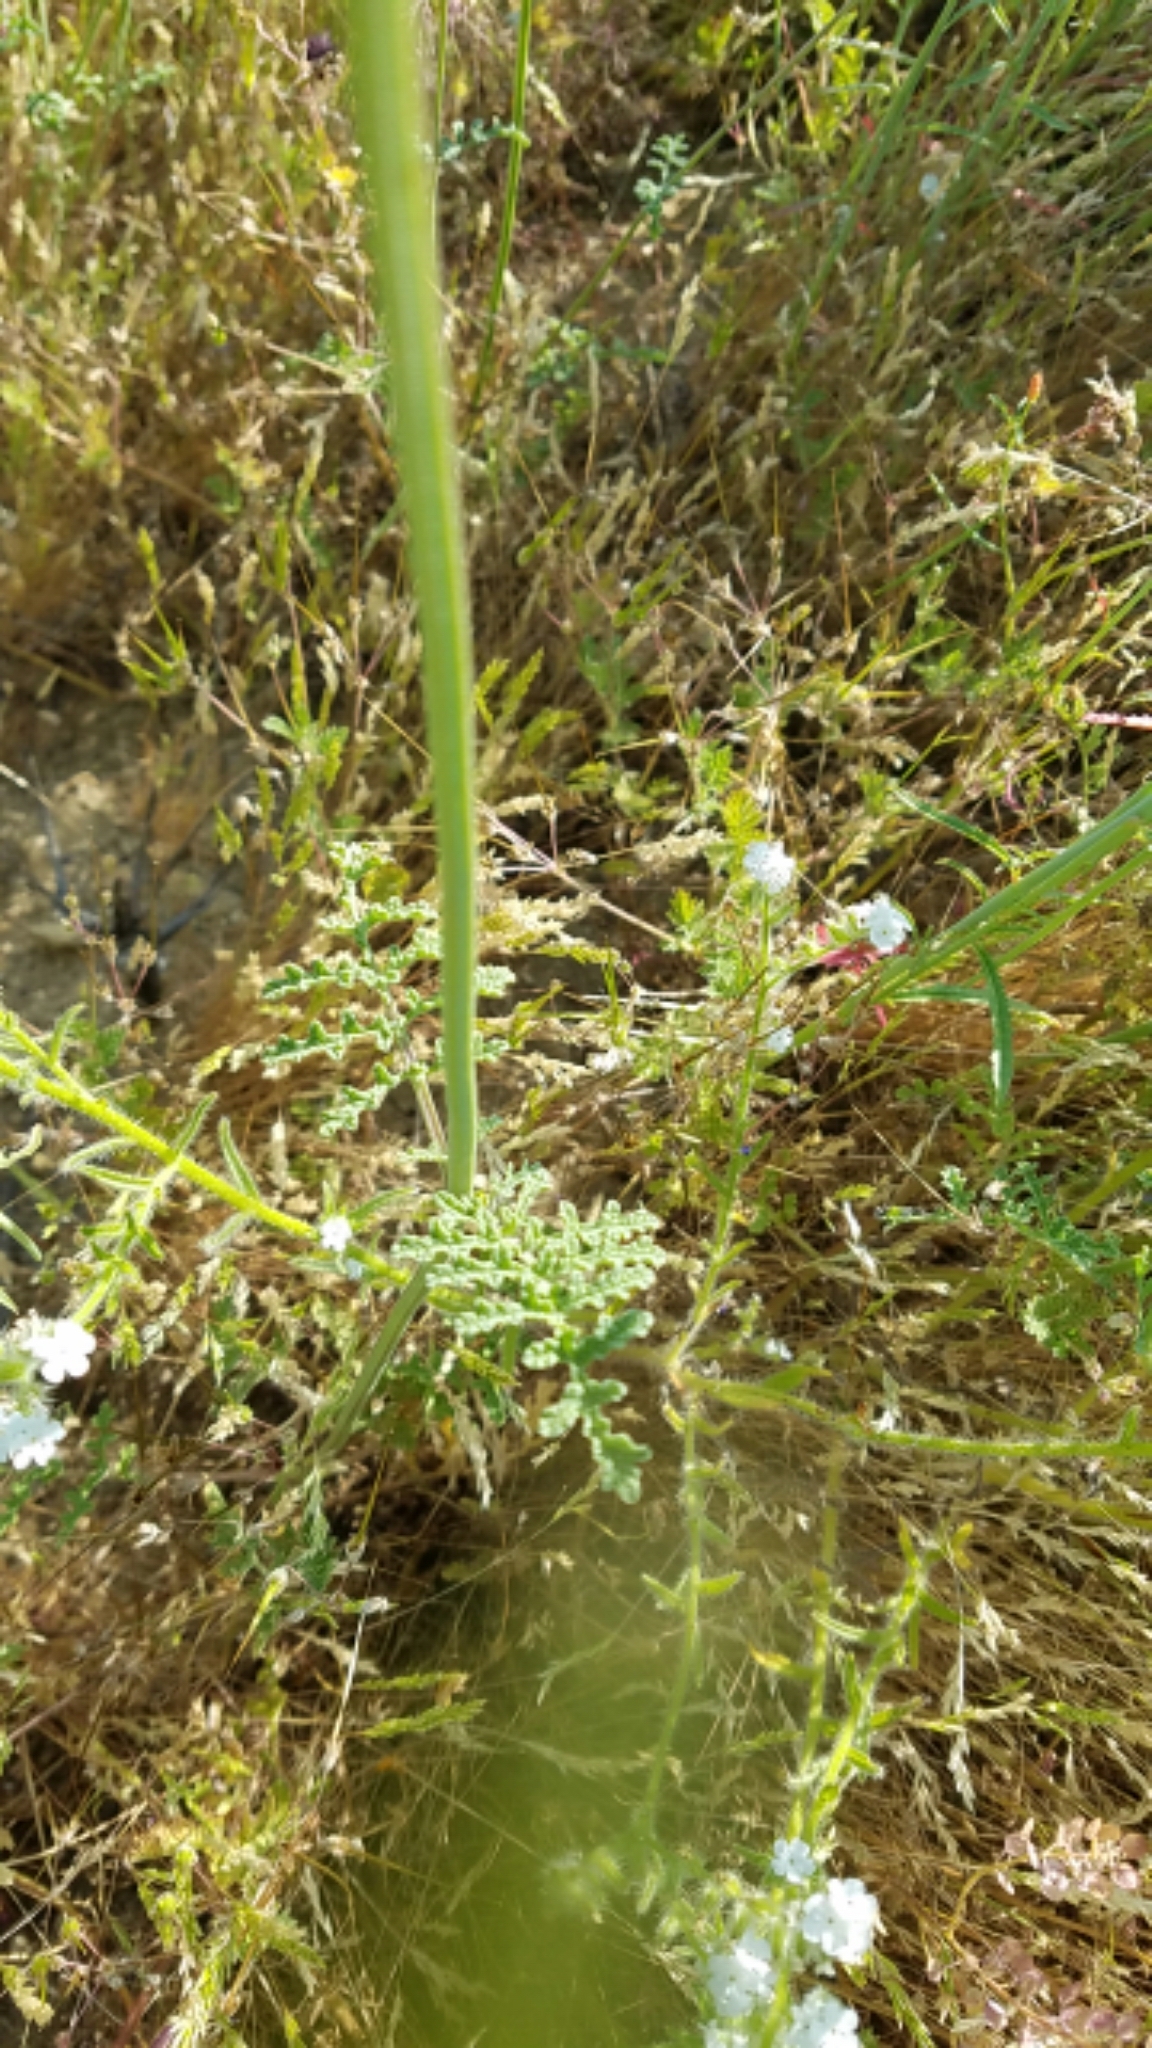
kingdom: Plantae
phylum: Tracheophyta
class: Magnoliopsida
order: Lamiales
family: Lamiaceae
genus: Salvia
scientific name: Salvia columbariae
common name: Chia
